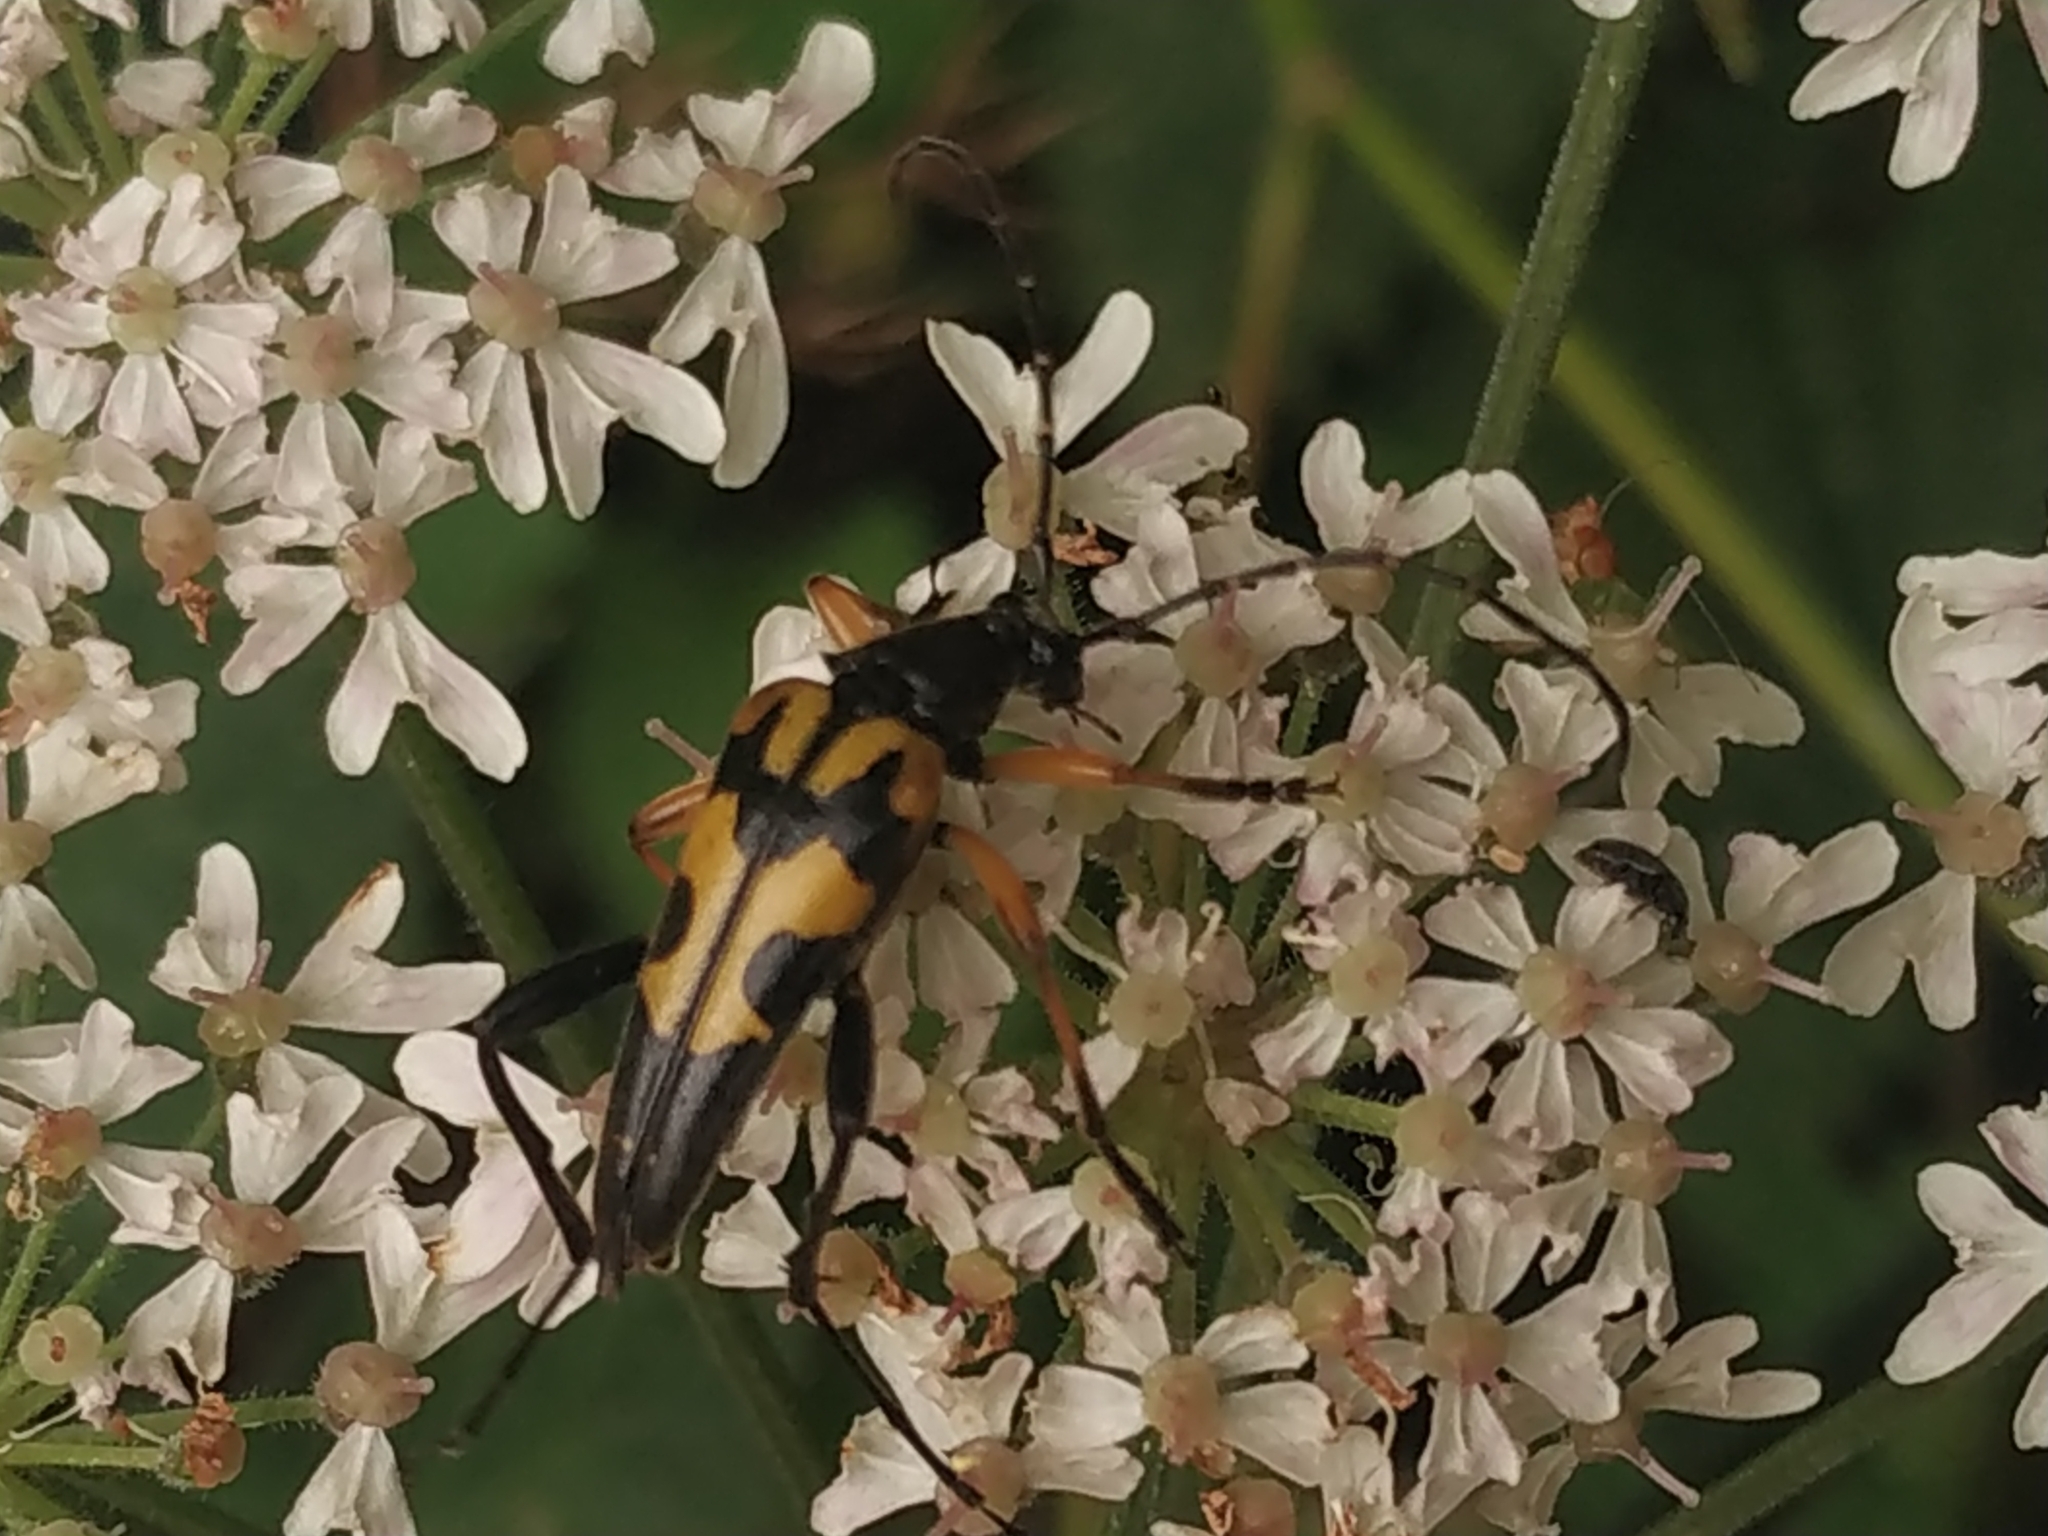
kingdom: Animalia
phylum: Arthropoda
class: Insecta
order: Coleoptera
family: Cerambycidae
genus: Rutpela
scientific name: Rutpela maculata
